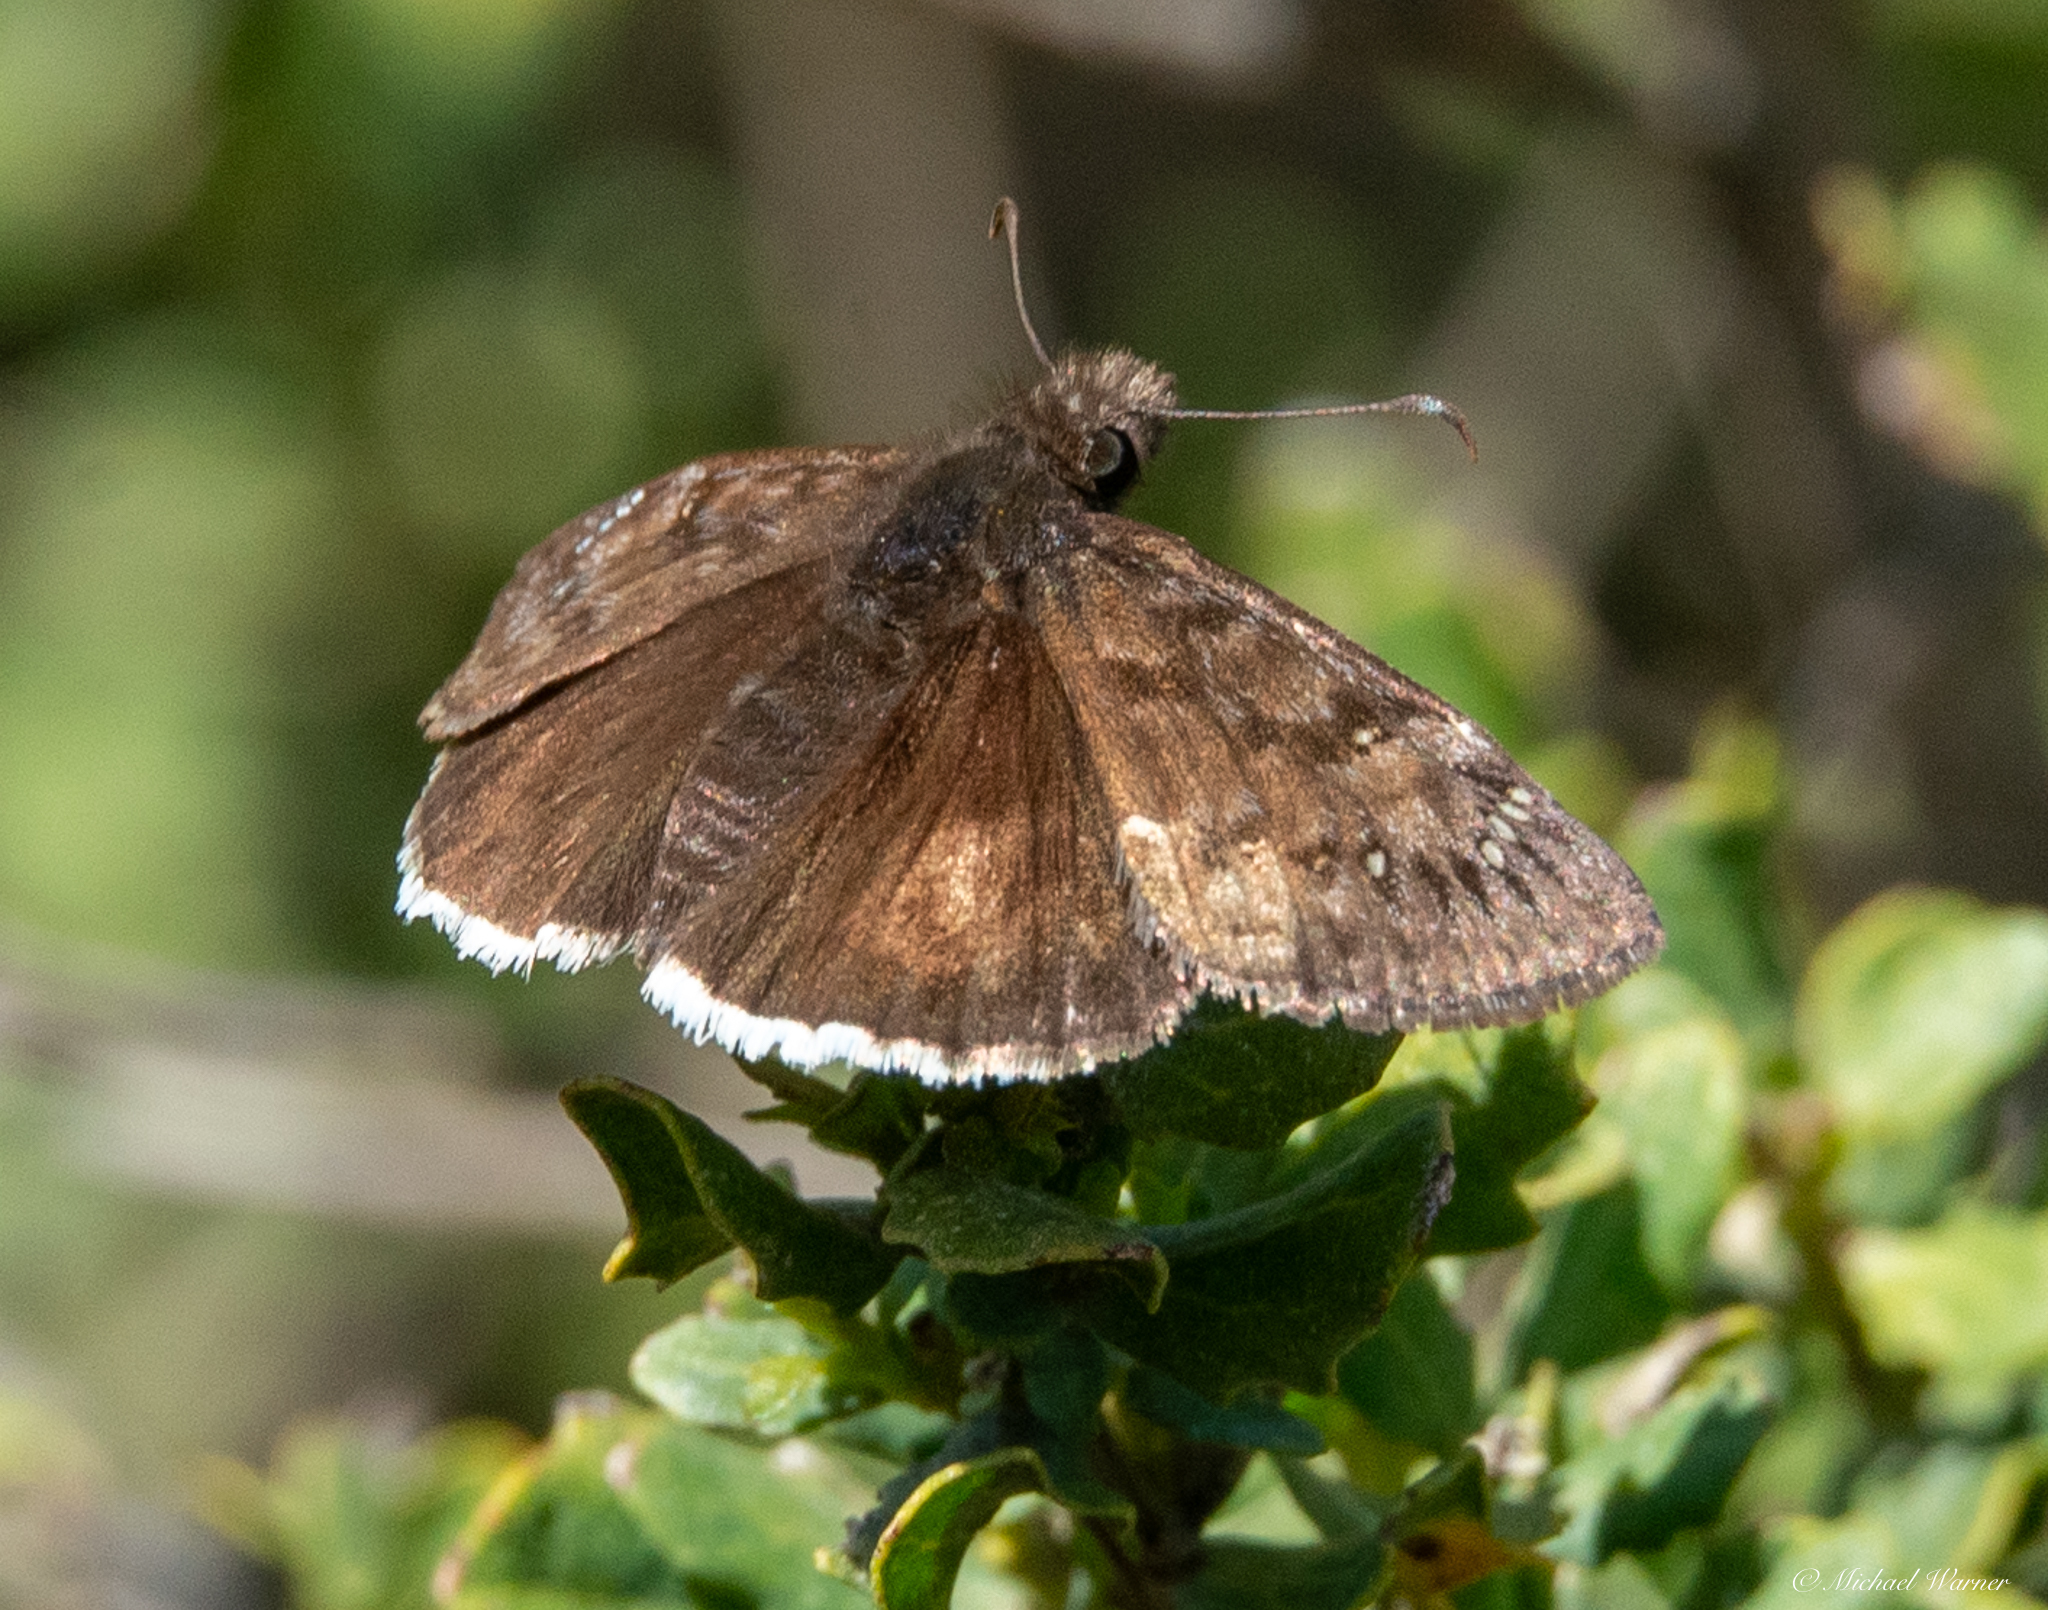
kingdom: Animalia
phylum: Arthropoda
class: Insecta
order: Lepidoptera
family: Hesperiidae
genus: Erynnis
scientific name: Erynnis tristis
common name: Mournful duskywing
